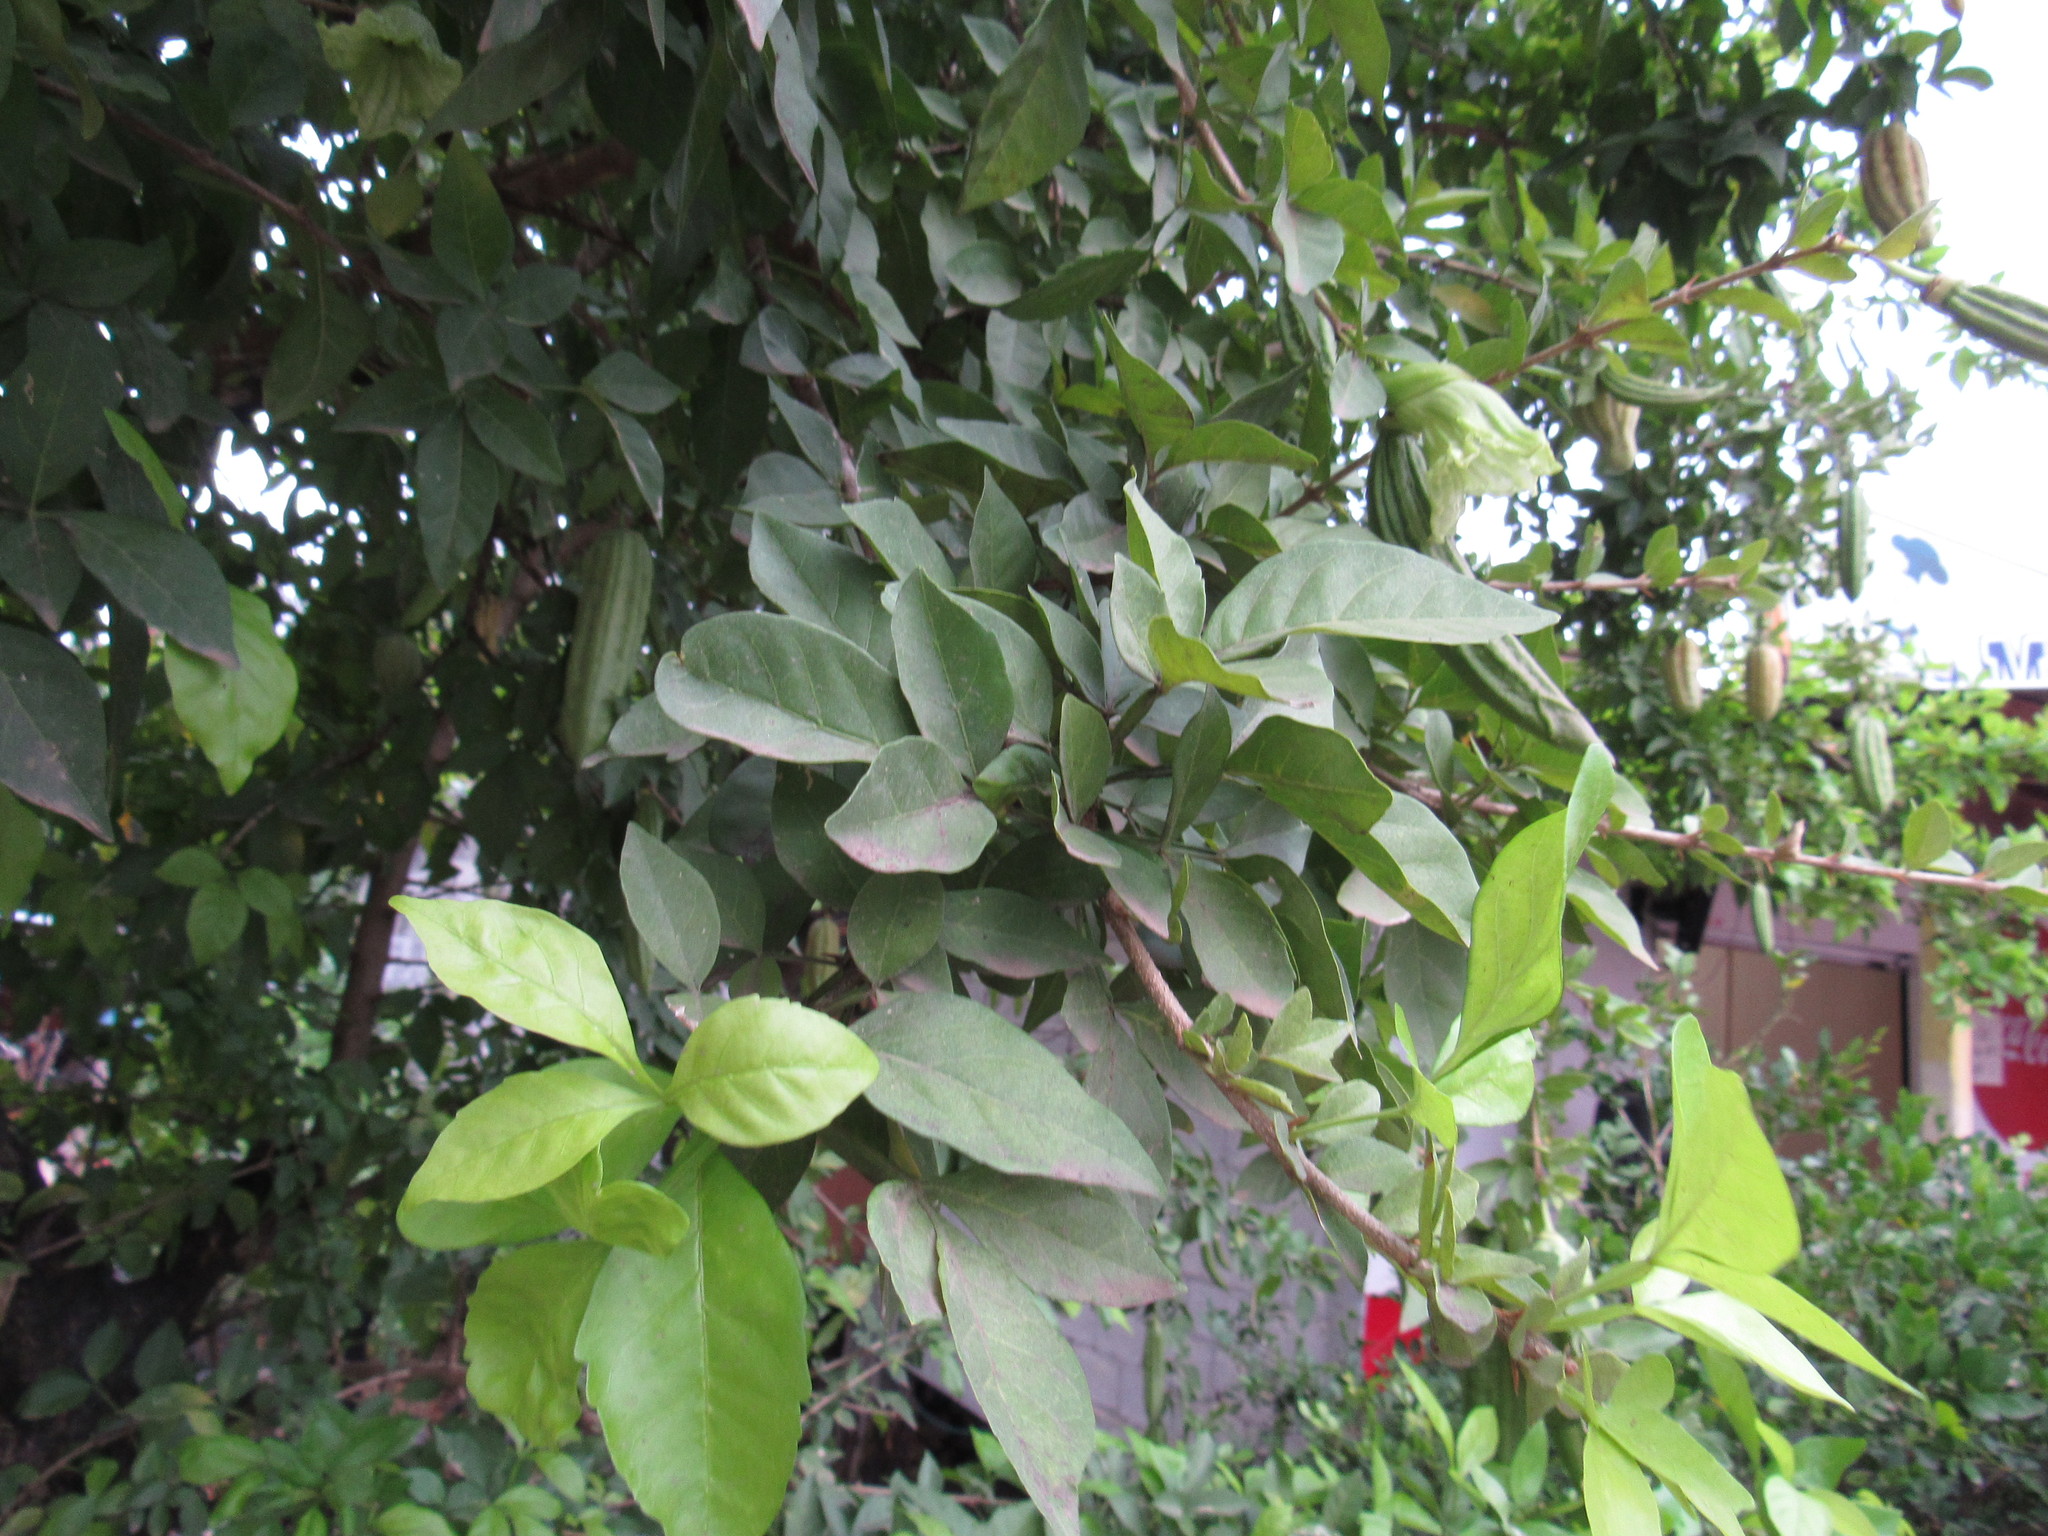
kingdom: Plantae
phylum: Tracheophyta
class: Magnoliopsida
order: Lamiales
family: Bignoniaceae
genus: Parmentiera
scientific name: Parmentiera aculeata
